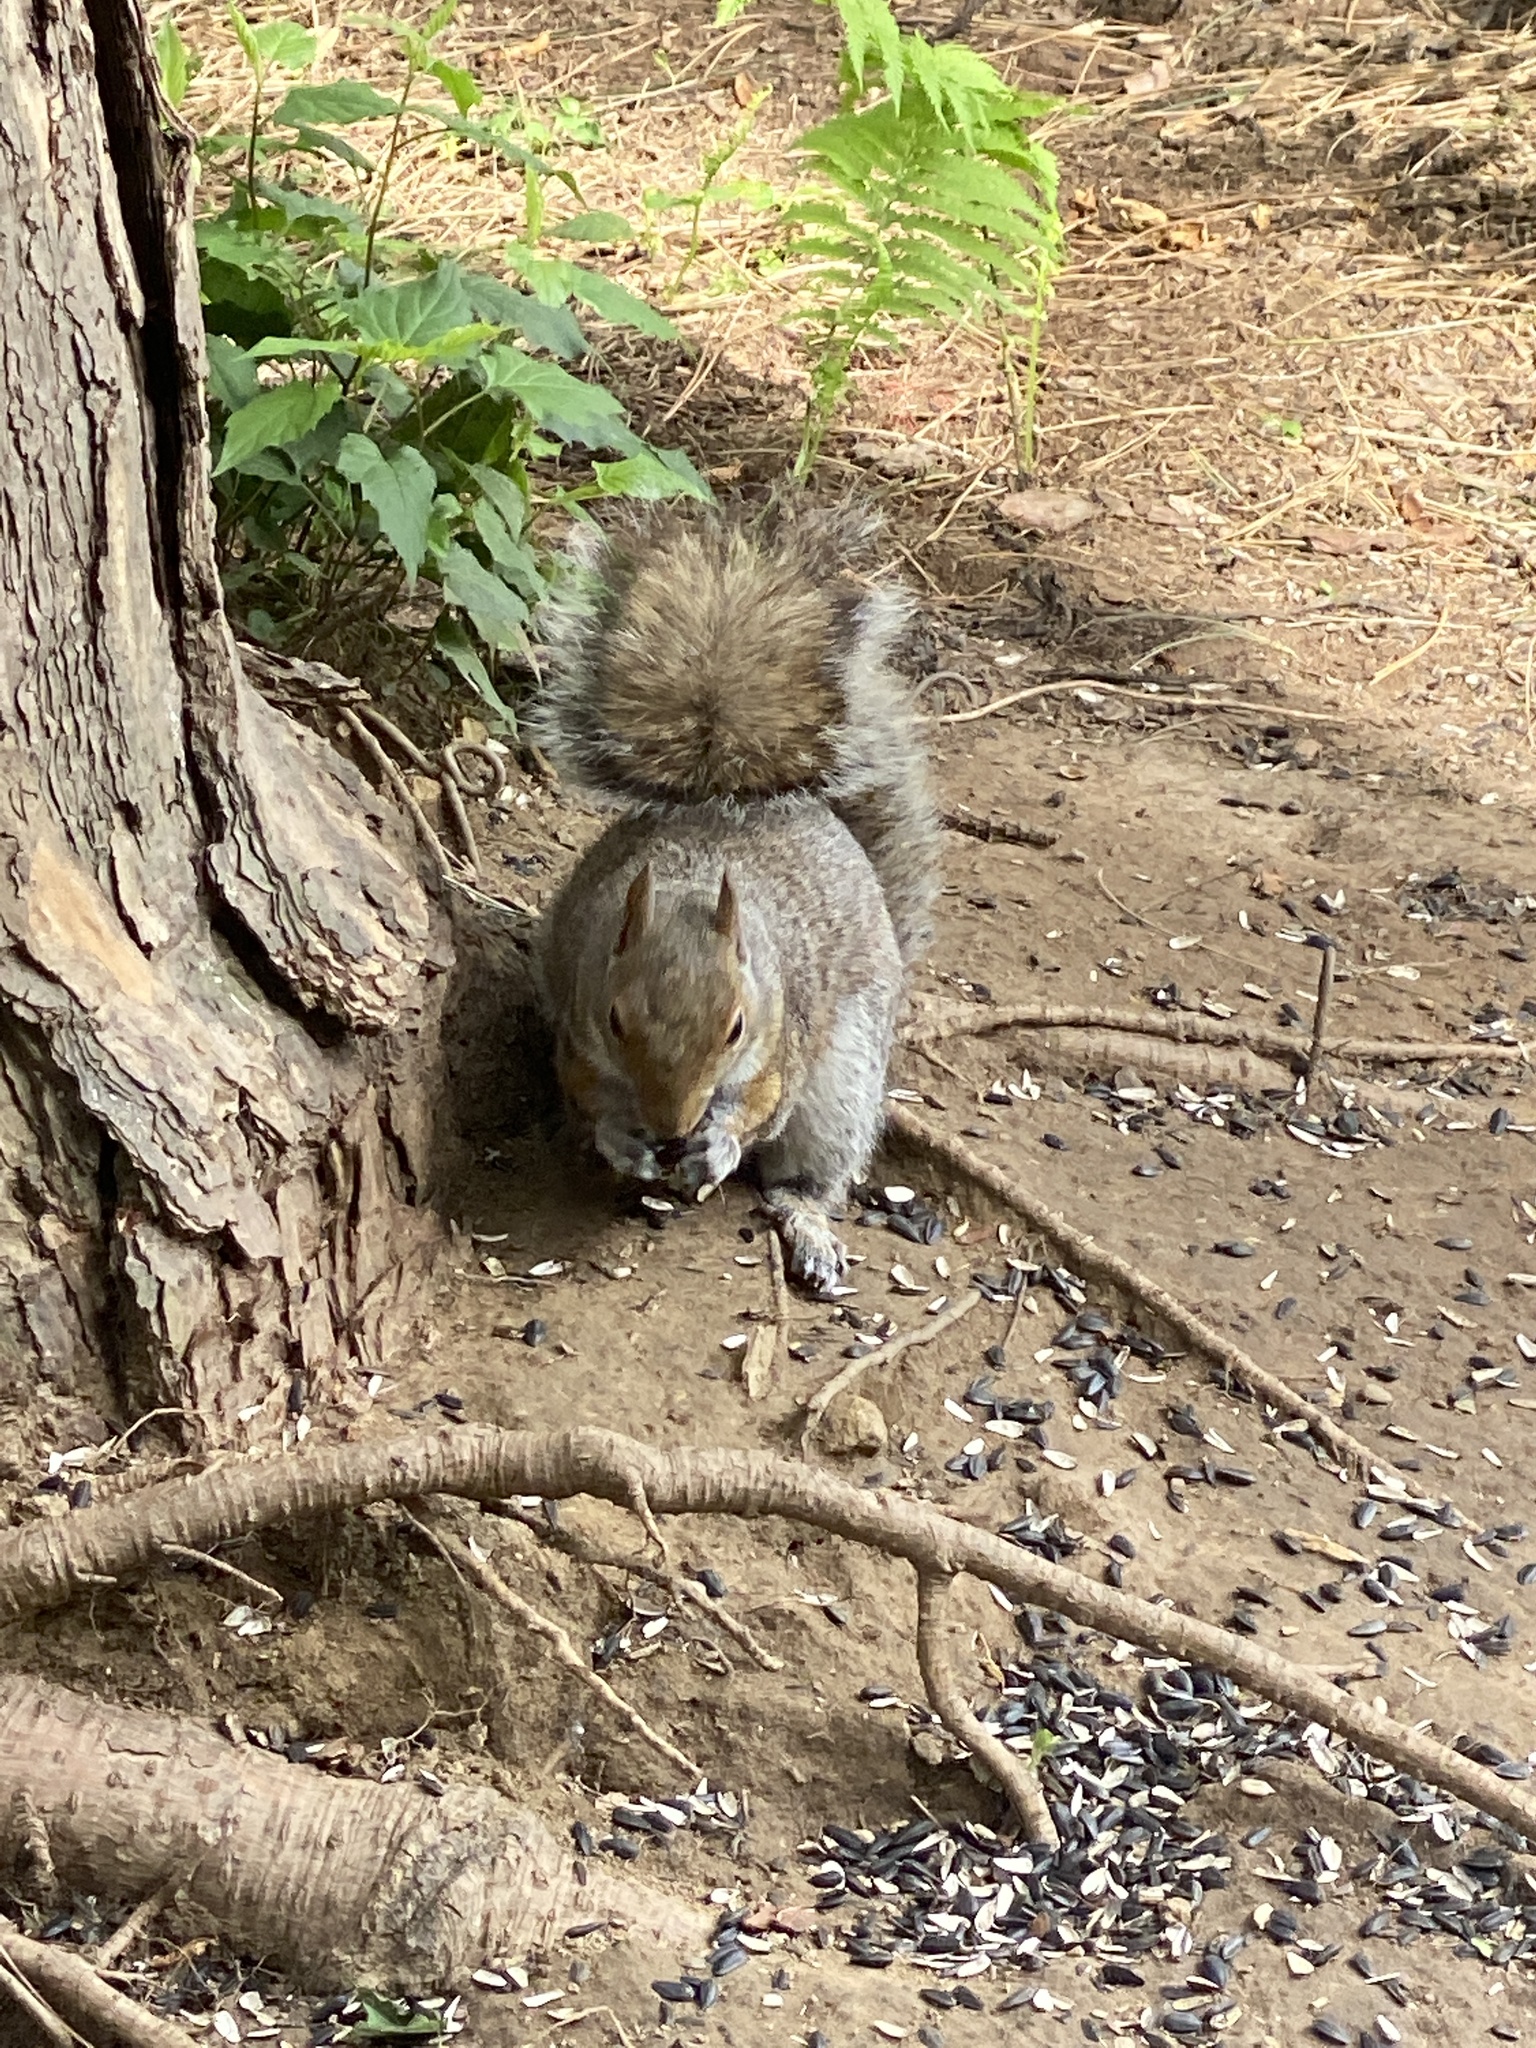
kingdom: Animalia
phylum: Chordata
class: Mammalia
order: Rodentia
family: Sciuridae
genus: Sciurus
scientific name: Sciurus carolinensis
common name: Eastern gray squirrel
